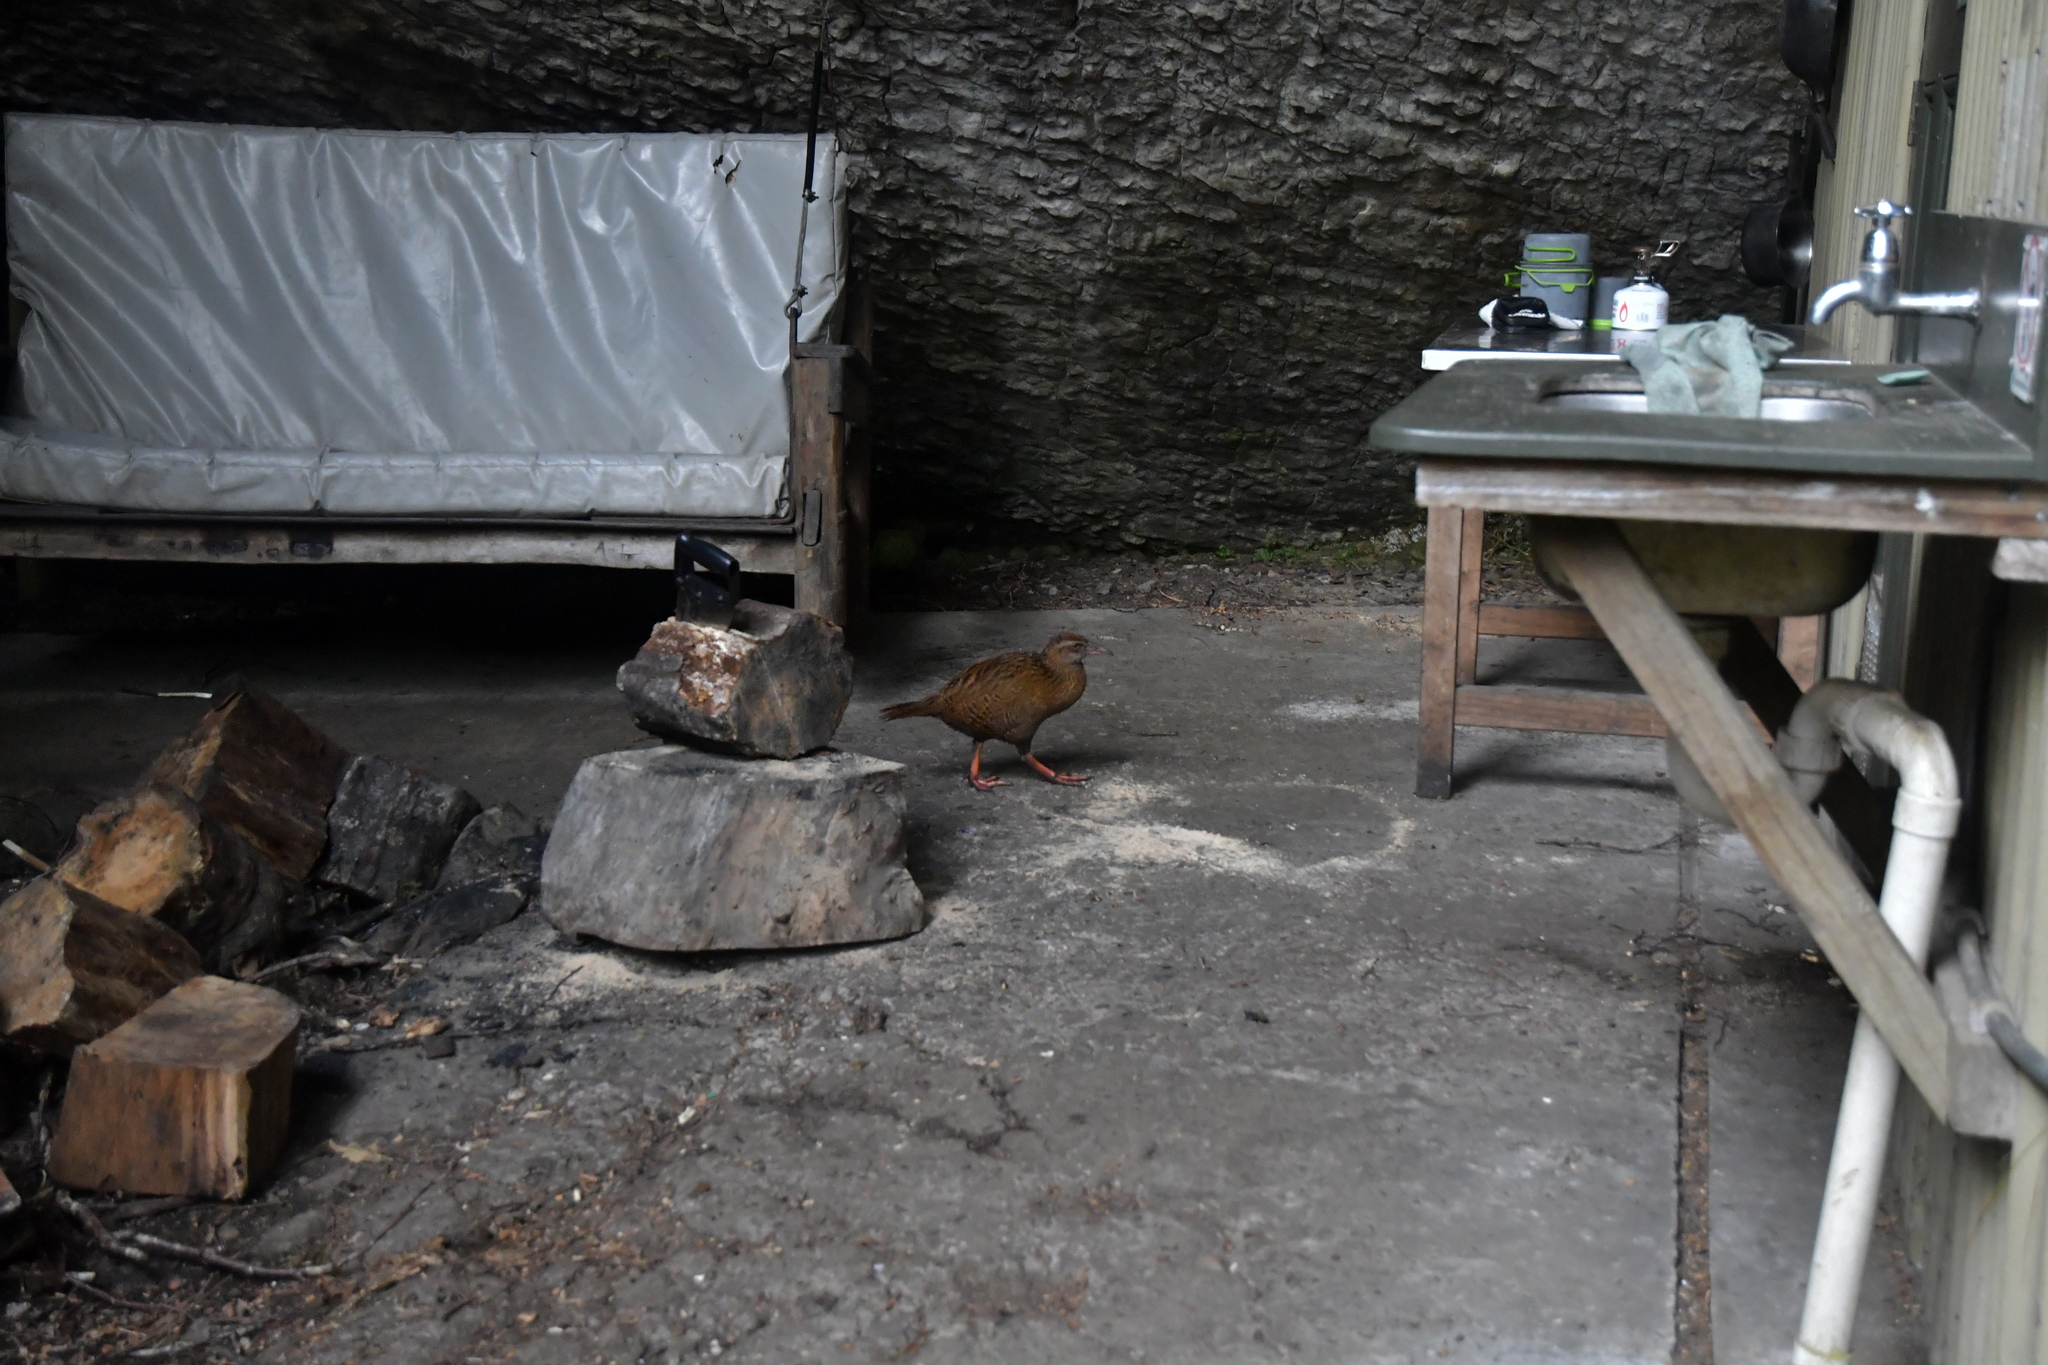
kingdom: Animalia
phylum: Chordata
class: Aves
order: Gruiformes
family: Rallidae
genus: Gallirallus
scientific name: Gallirallus australis
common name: Weka
